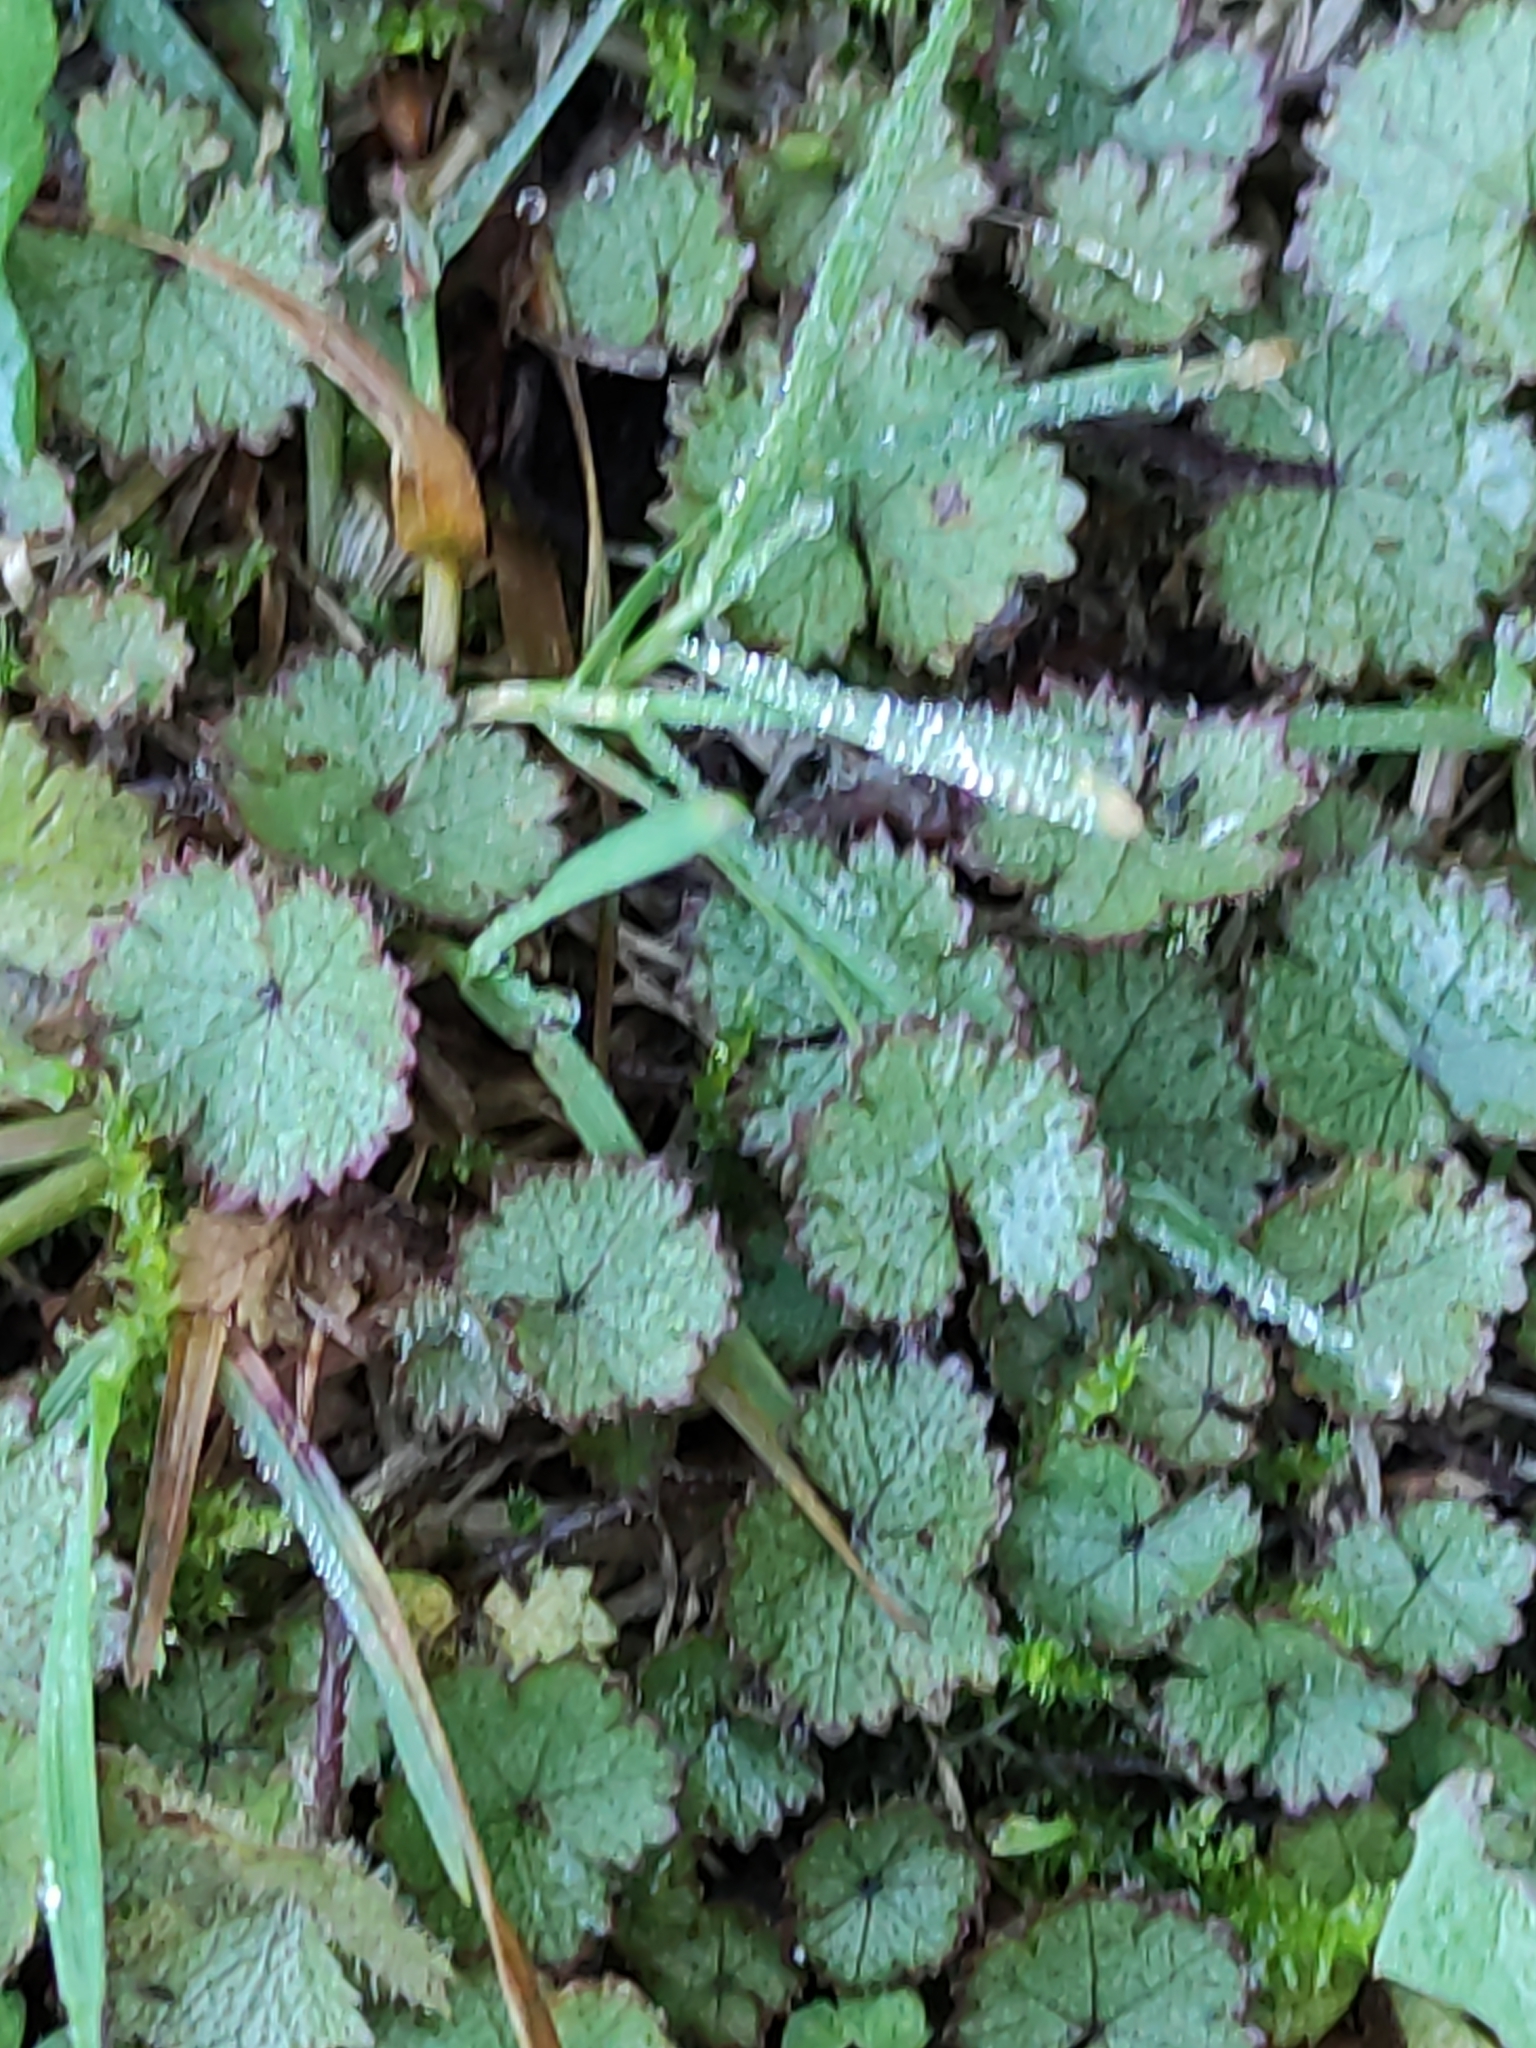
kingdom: Plantae
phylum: Tracheophyta
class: Magnoliopsida
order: Apiales
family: Araliaceae
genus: Hydrocotyle
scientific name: Hydrocotyle moschata
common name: Hairy pennywort
